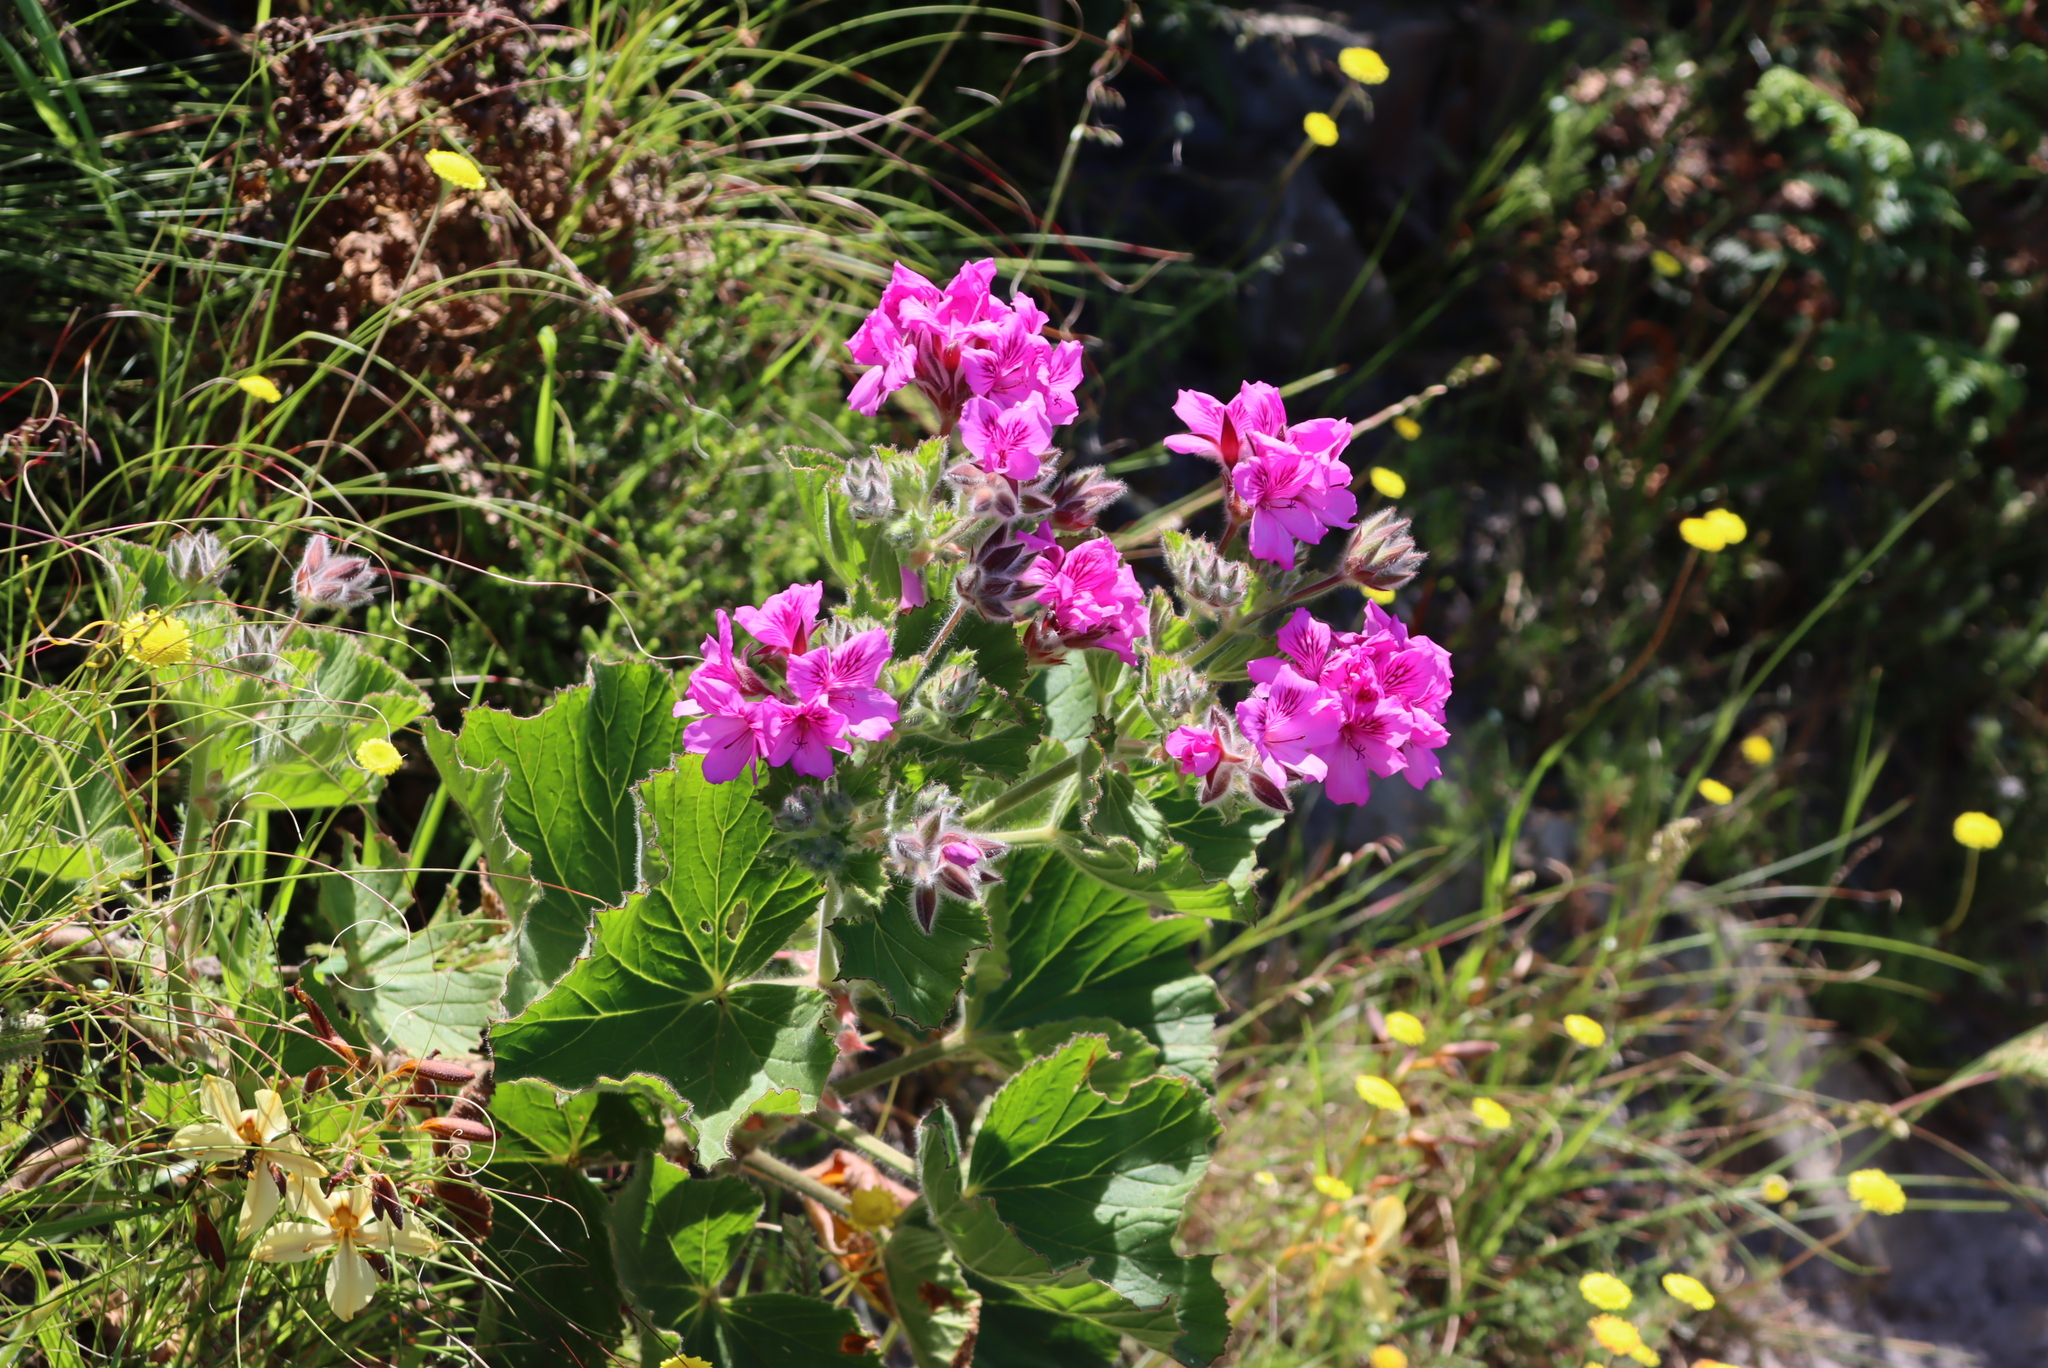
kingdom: Plantae
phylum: Tracheophyta
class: Magnoliopsida
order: Geraniales
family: Geraniaceae
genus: Pelargonium
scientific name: Pelargonium cucullatum
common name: Tree pelargonium
